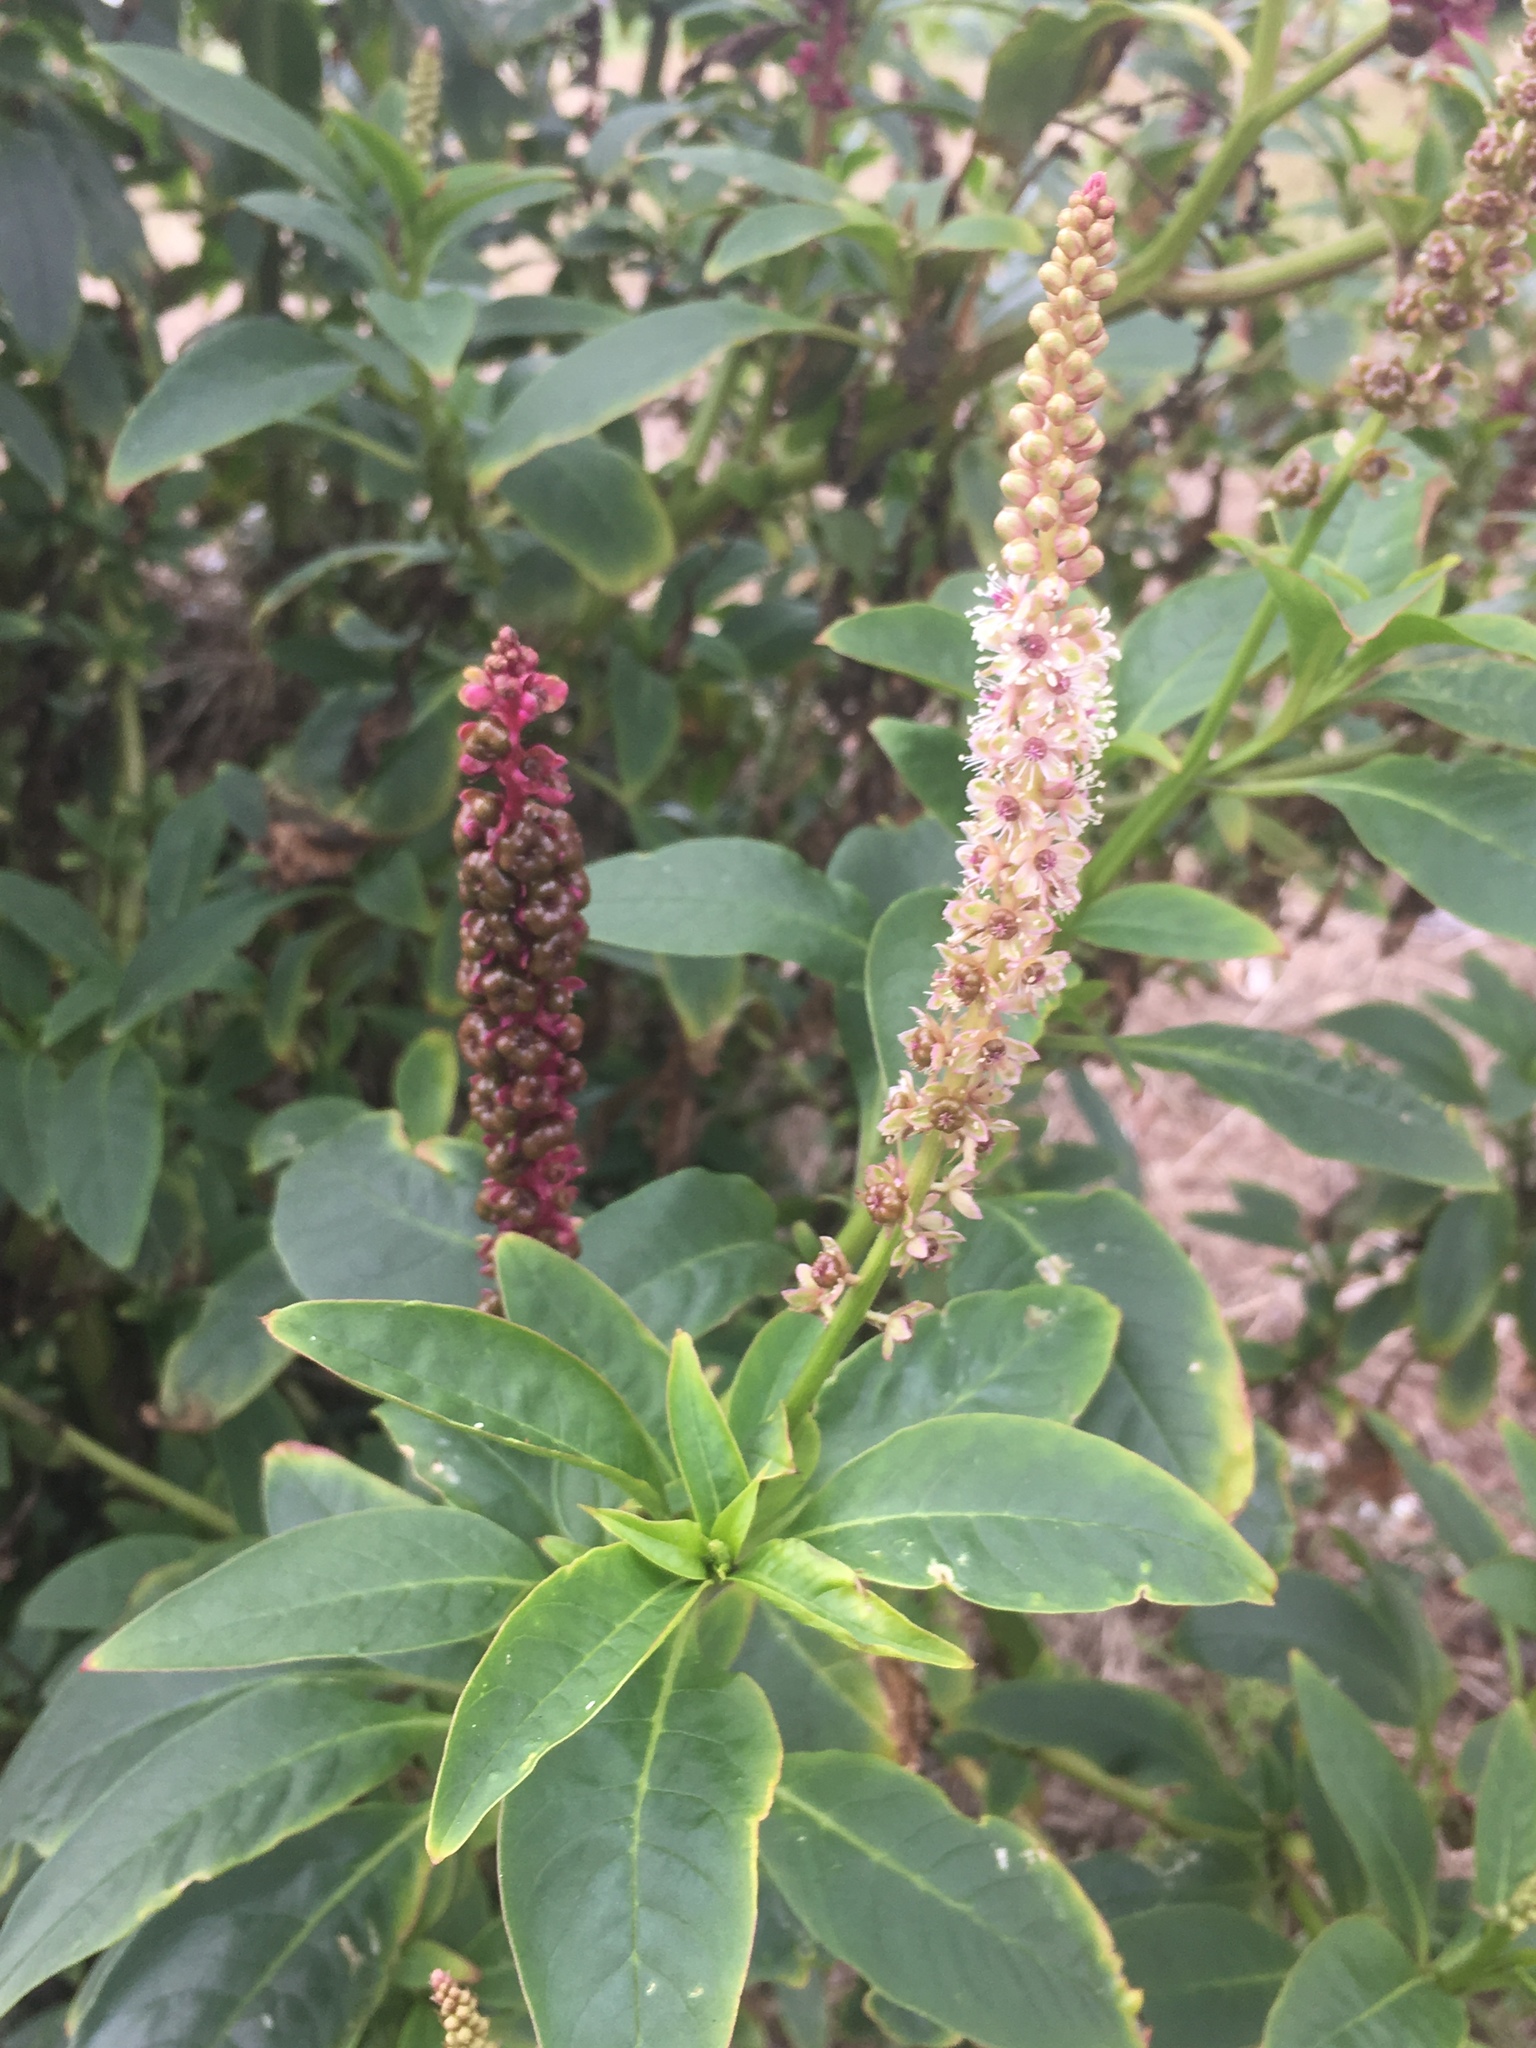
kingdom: Plantae
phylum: Tracheophyta
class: Magnoliopsida
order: Caryophyllales
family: Phytolaccaceae
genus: Phytolacca
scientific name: Phytolacca heterotepala
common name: Mexican pokeweed
